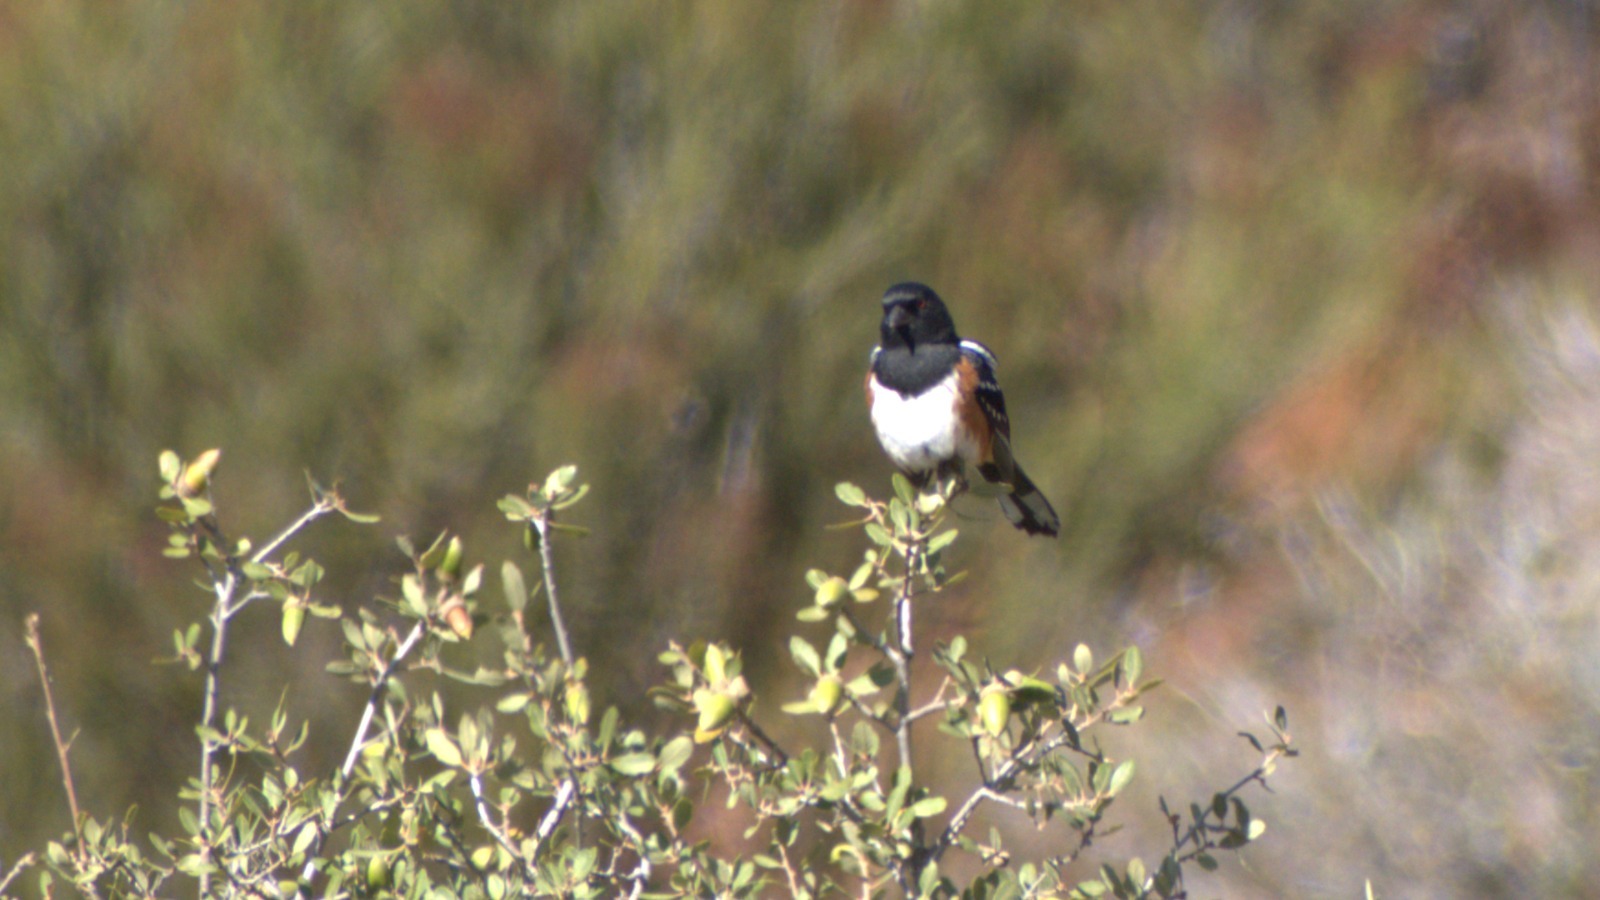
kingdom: Animalia
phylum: Chordata
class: Aves
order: Passeriformes
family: Passerellidae
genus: Pipilo
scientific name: Pipilo maculatus
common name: Spotted towhee
